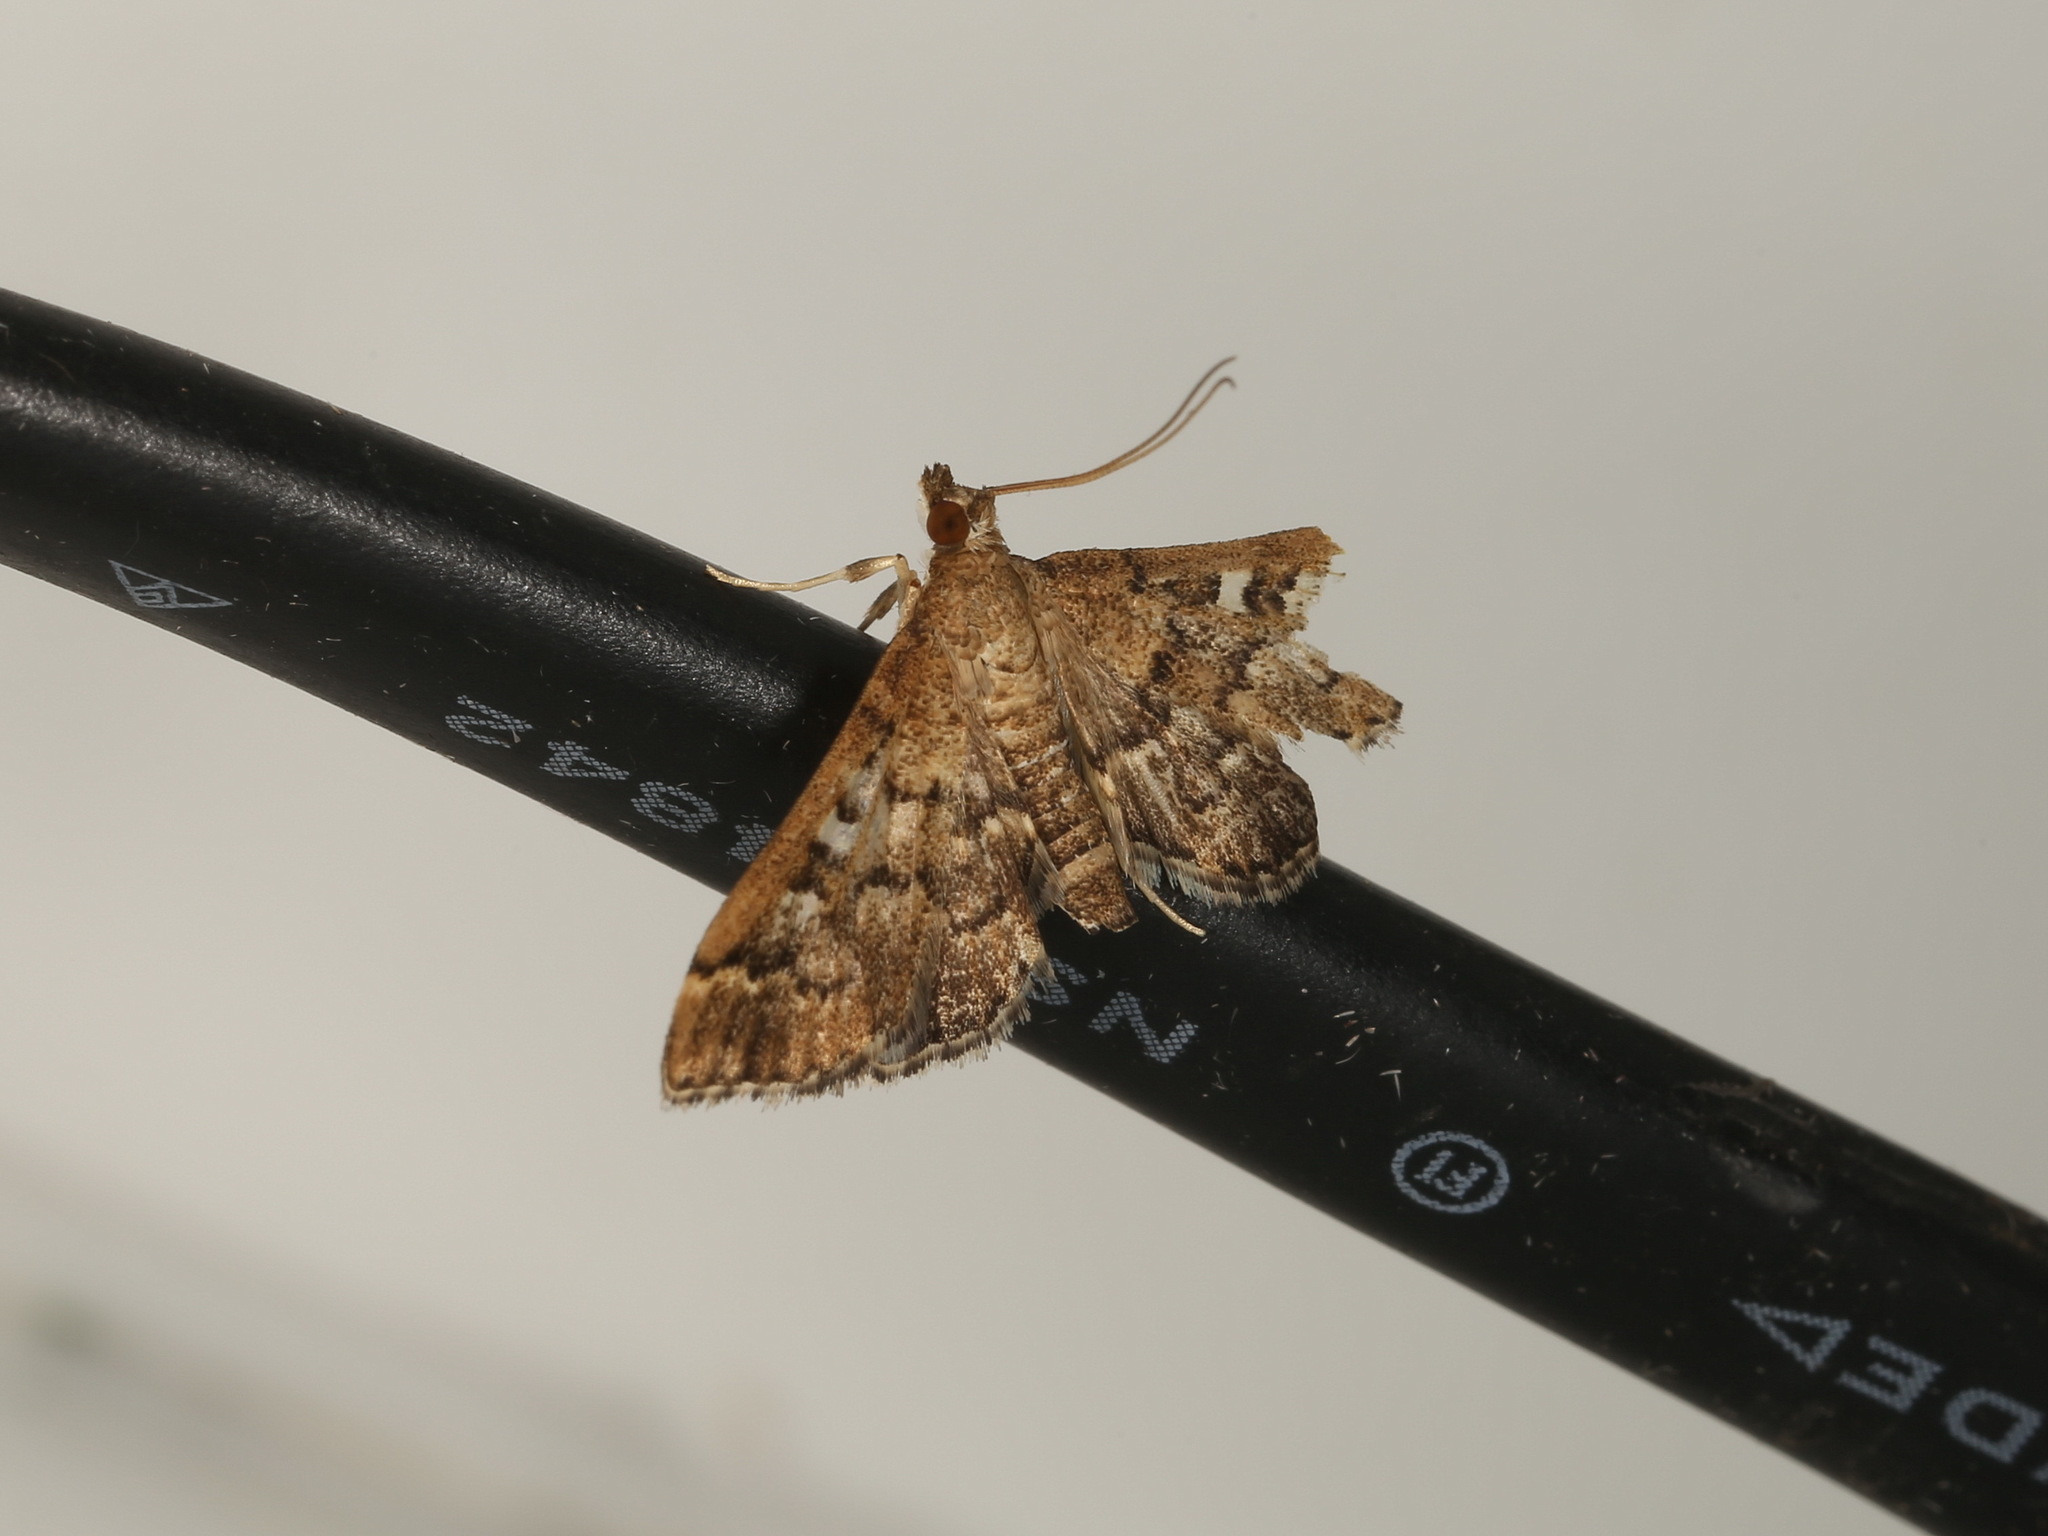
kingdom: Animalia
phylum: Arthropoda
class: Insecta
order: Lepidoptera
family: Crambidae
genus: Nacoleia
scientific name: Nacoleia rhoeoalis
